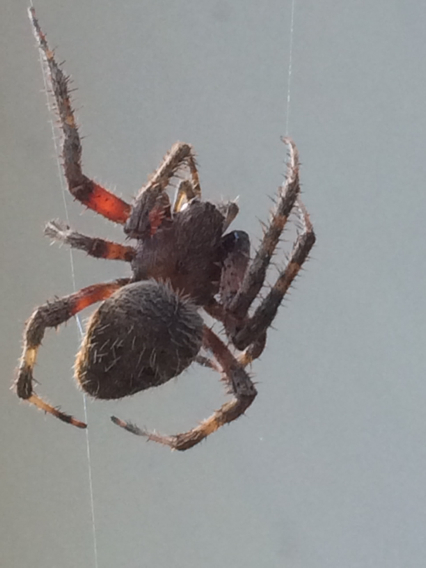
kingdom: Animalia
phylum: Arthropoda
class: Arachnida
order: Araneae
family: Araneidae
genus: Neoscona
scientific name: Neoscona crucifera
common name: Spotted orbweaver
